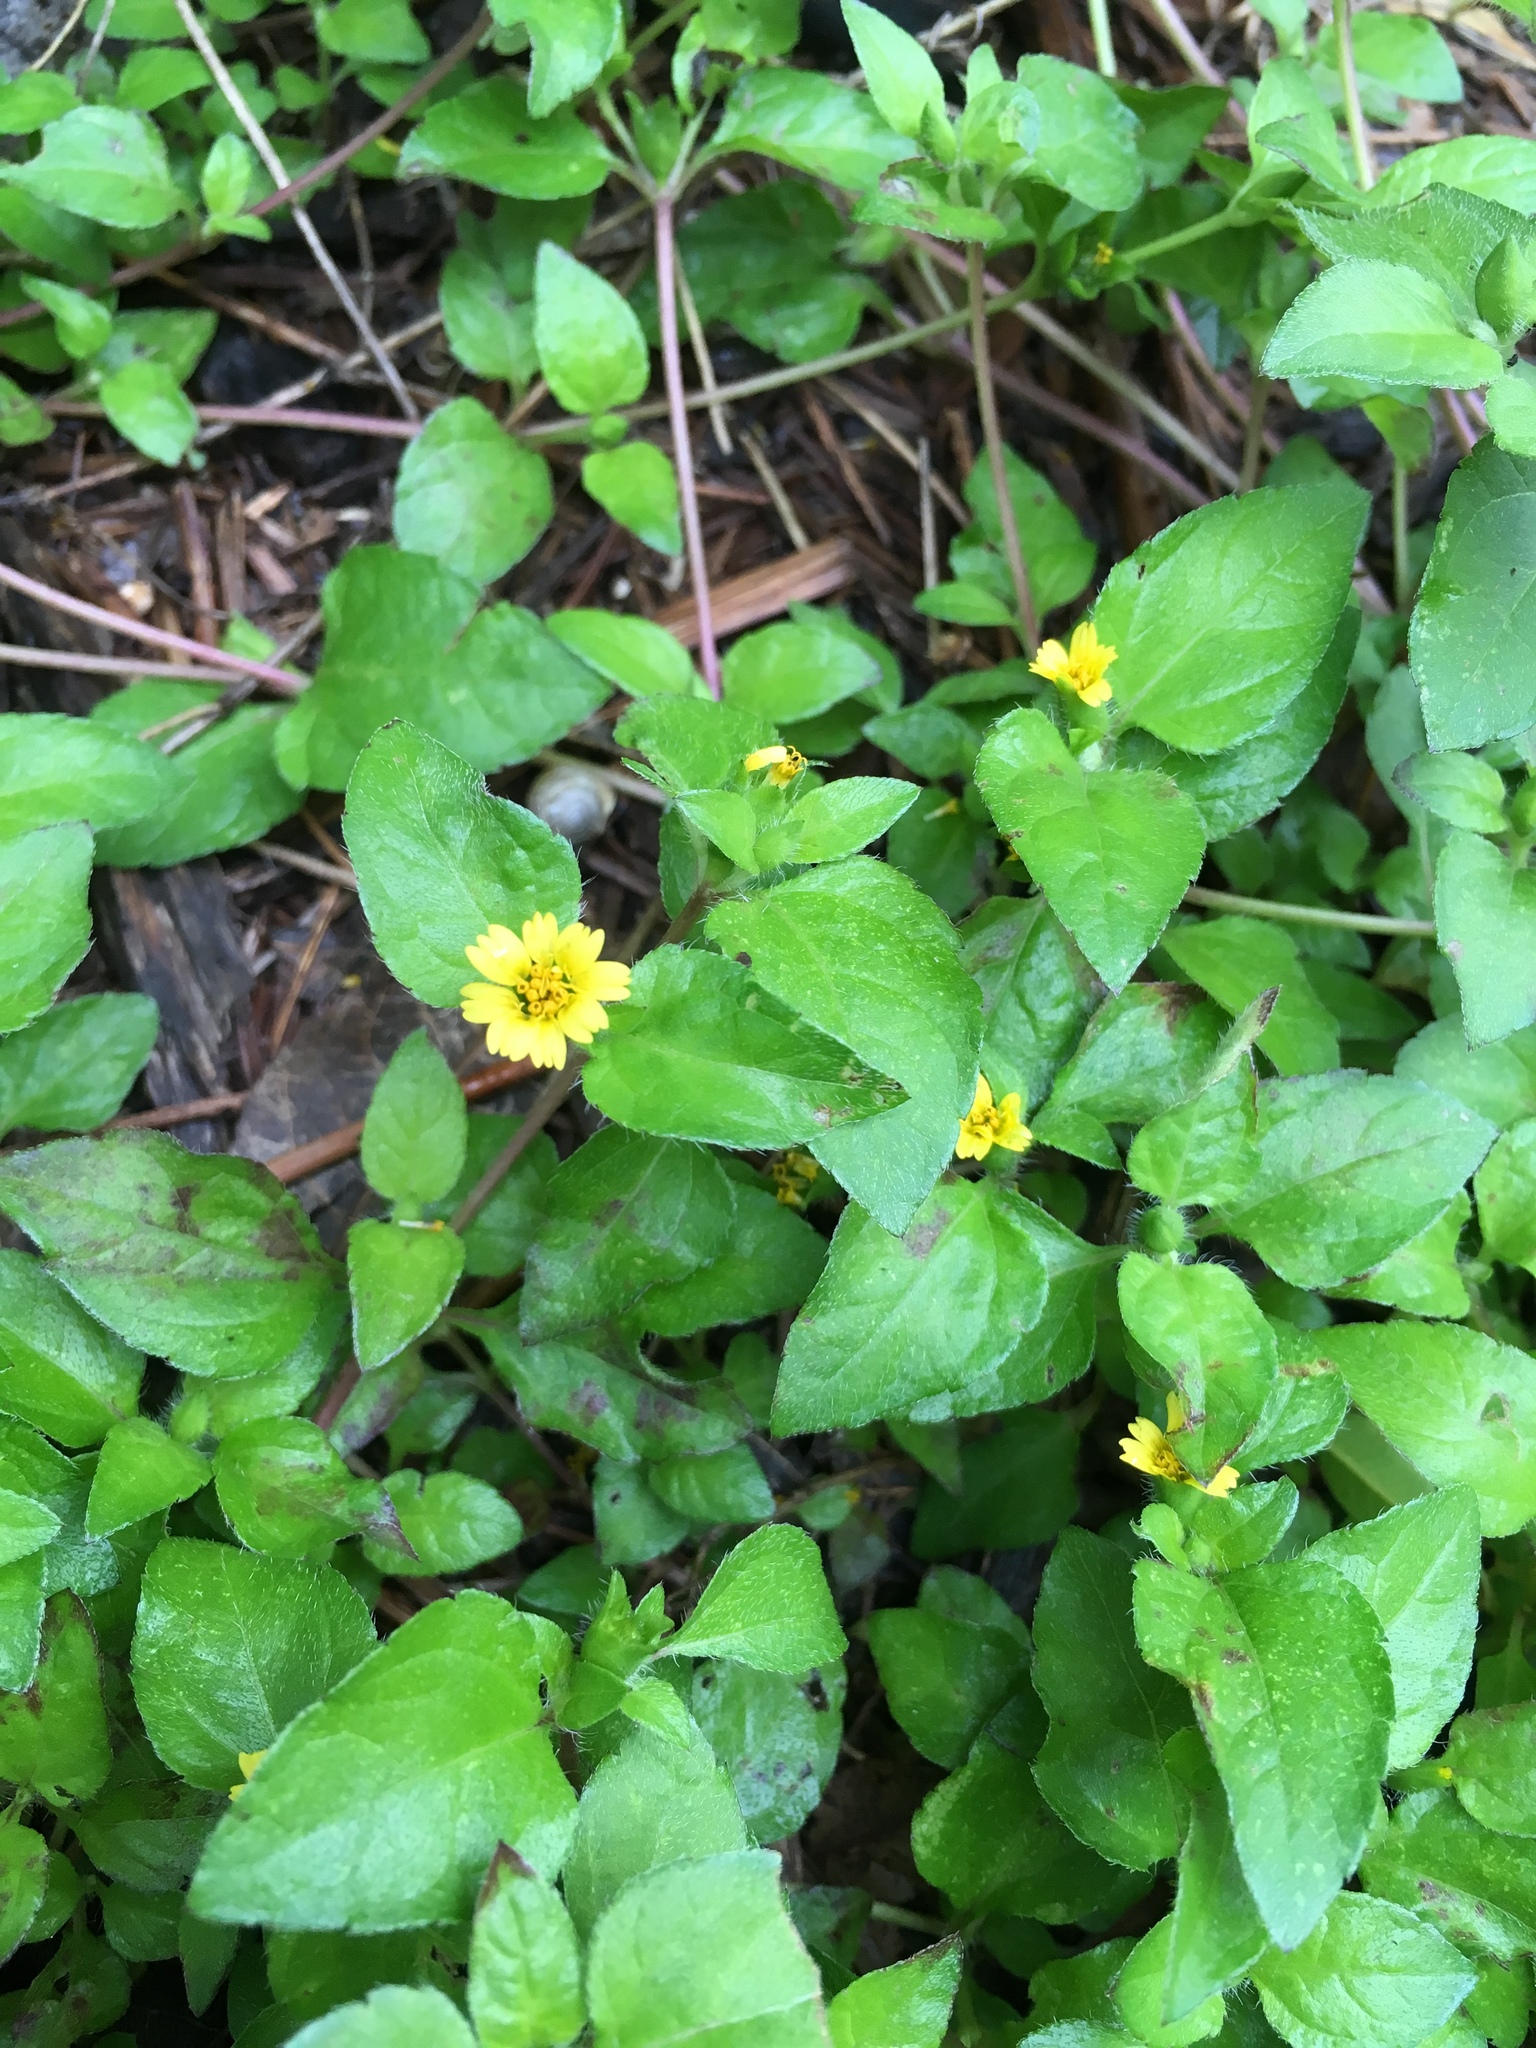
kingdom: Plantae
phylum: Tracheophyta
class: Magnoliopsida
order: Asterales
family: Asteraceae
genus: Calyptocarpus
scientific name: Calyptocarpus vialis
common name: Straggler daisy
